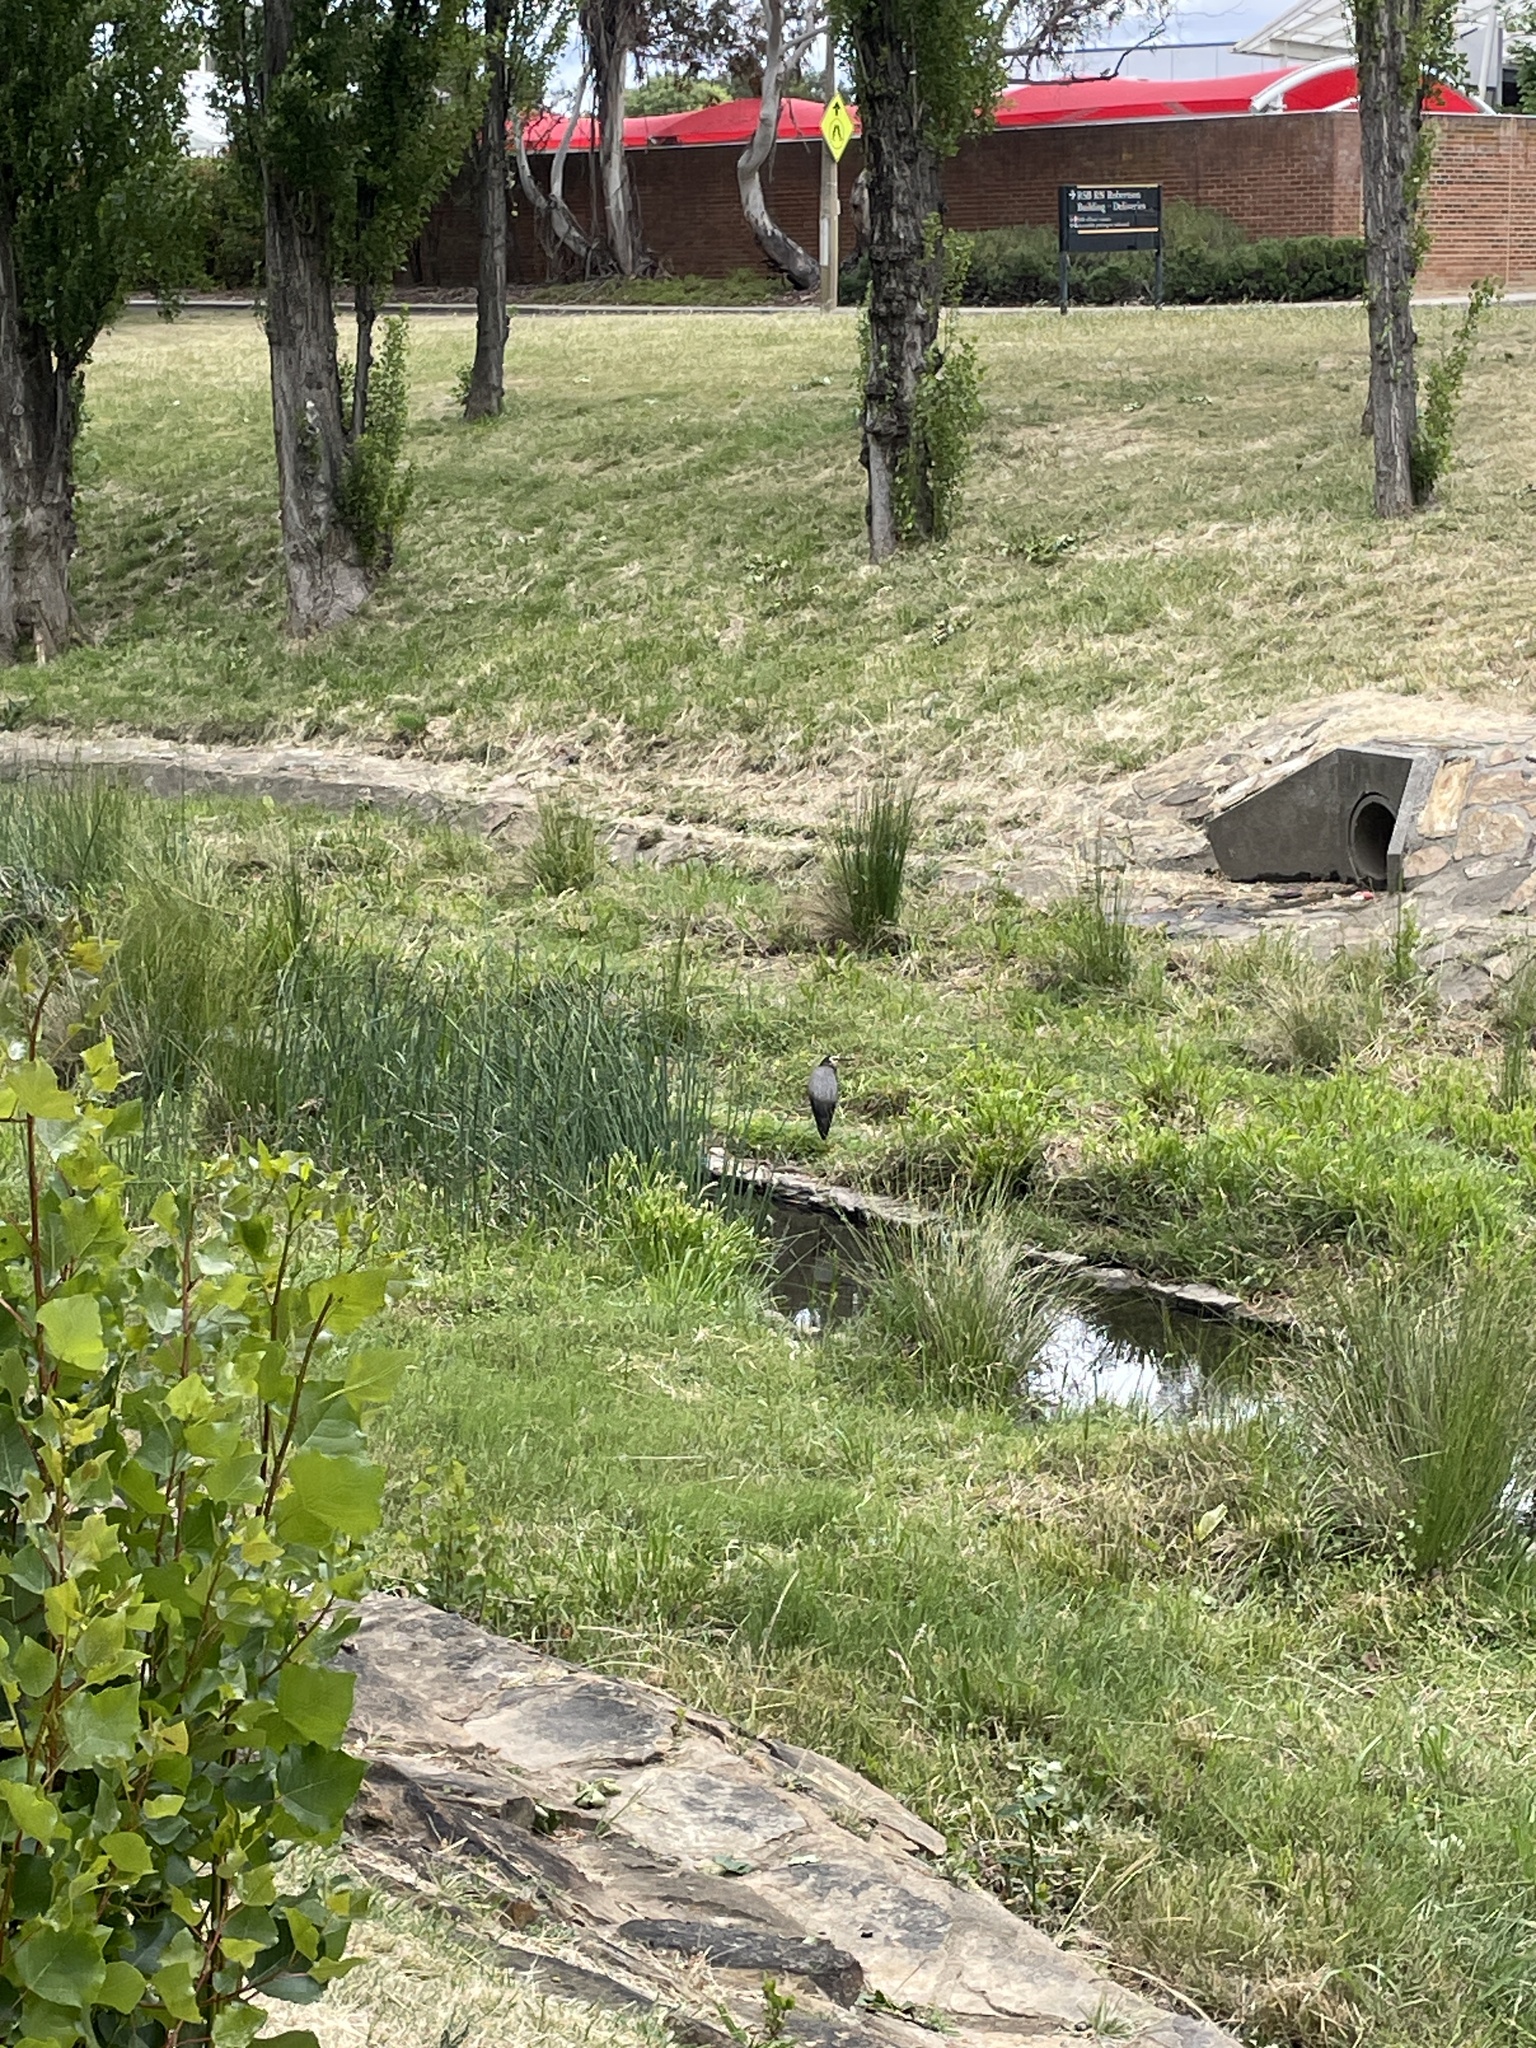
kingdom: Animalia
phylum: Chordata
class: Aves
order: Pelecaniformes
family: Ardeidae
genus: Egretta
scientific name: Egretta novaehollandiae
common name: White-faced heron
